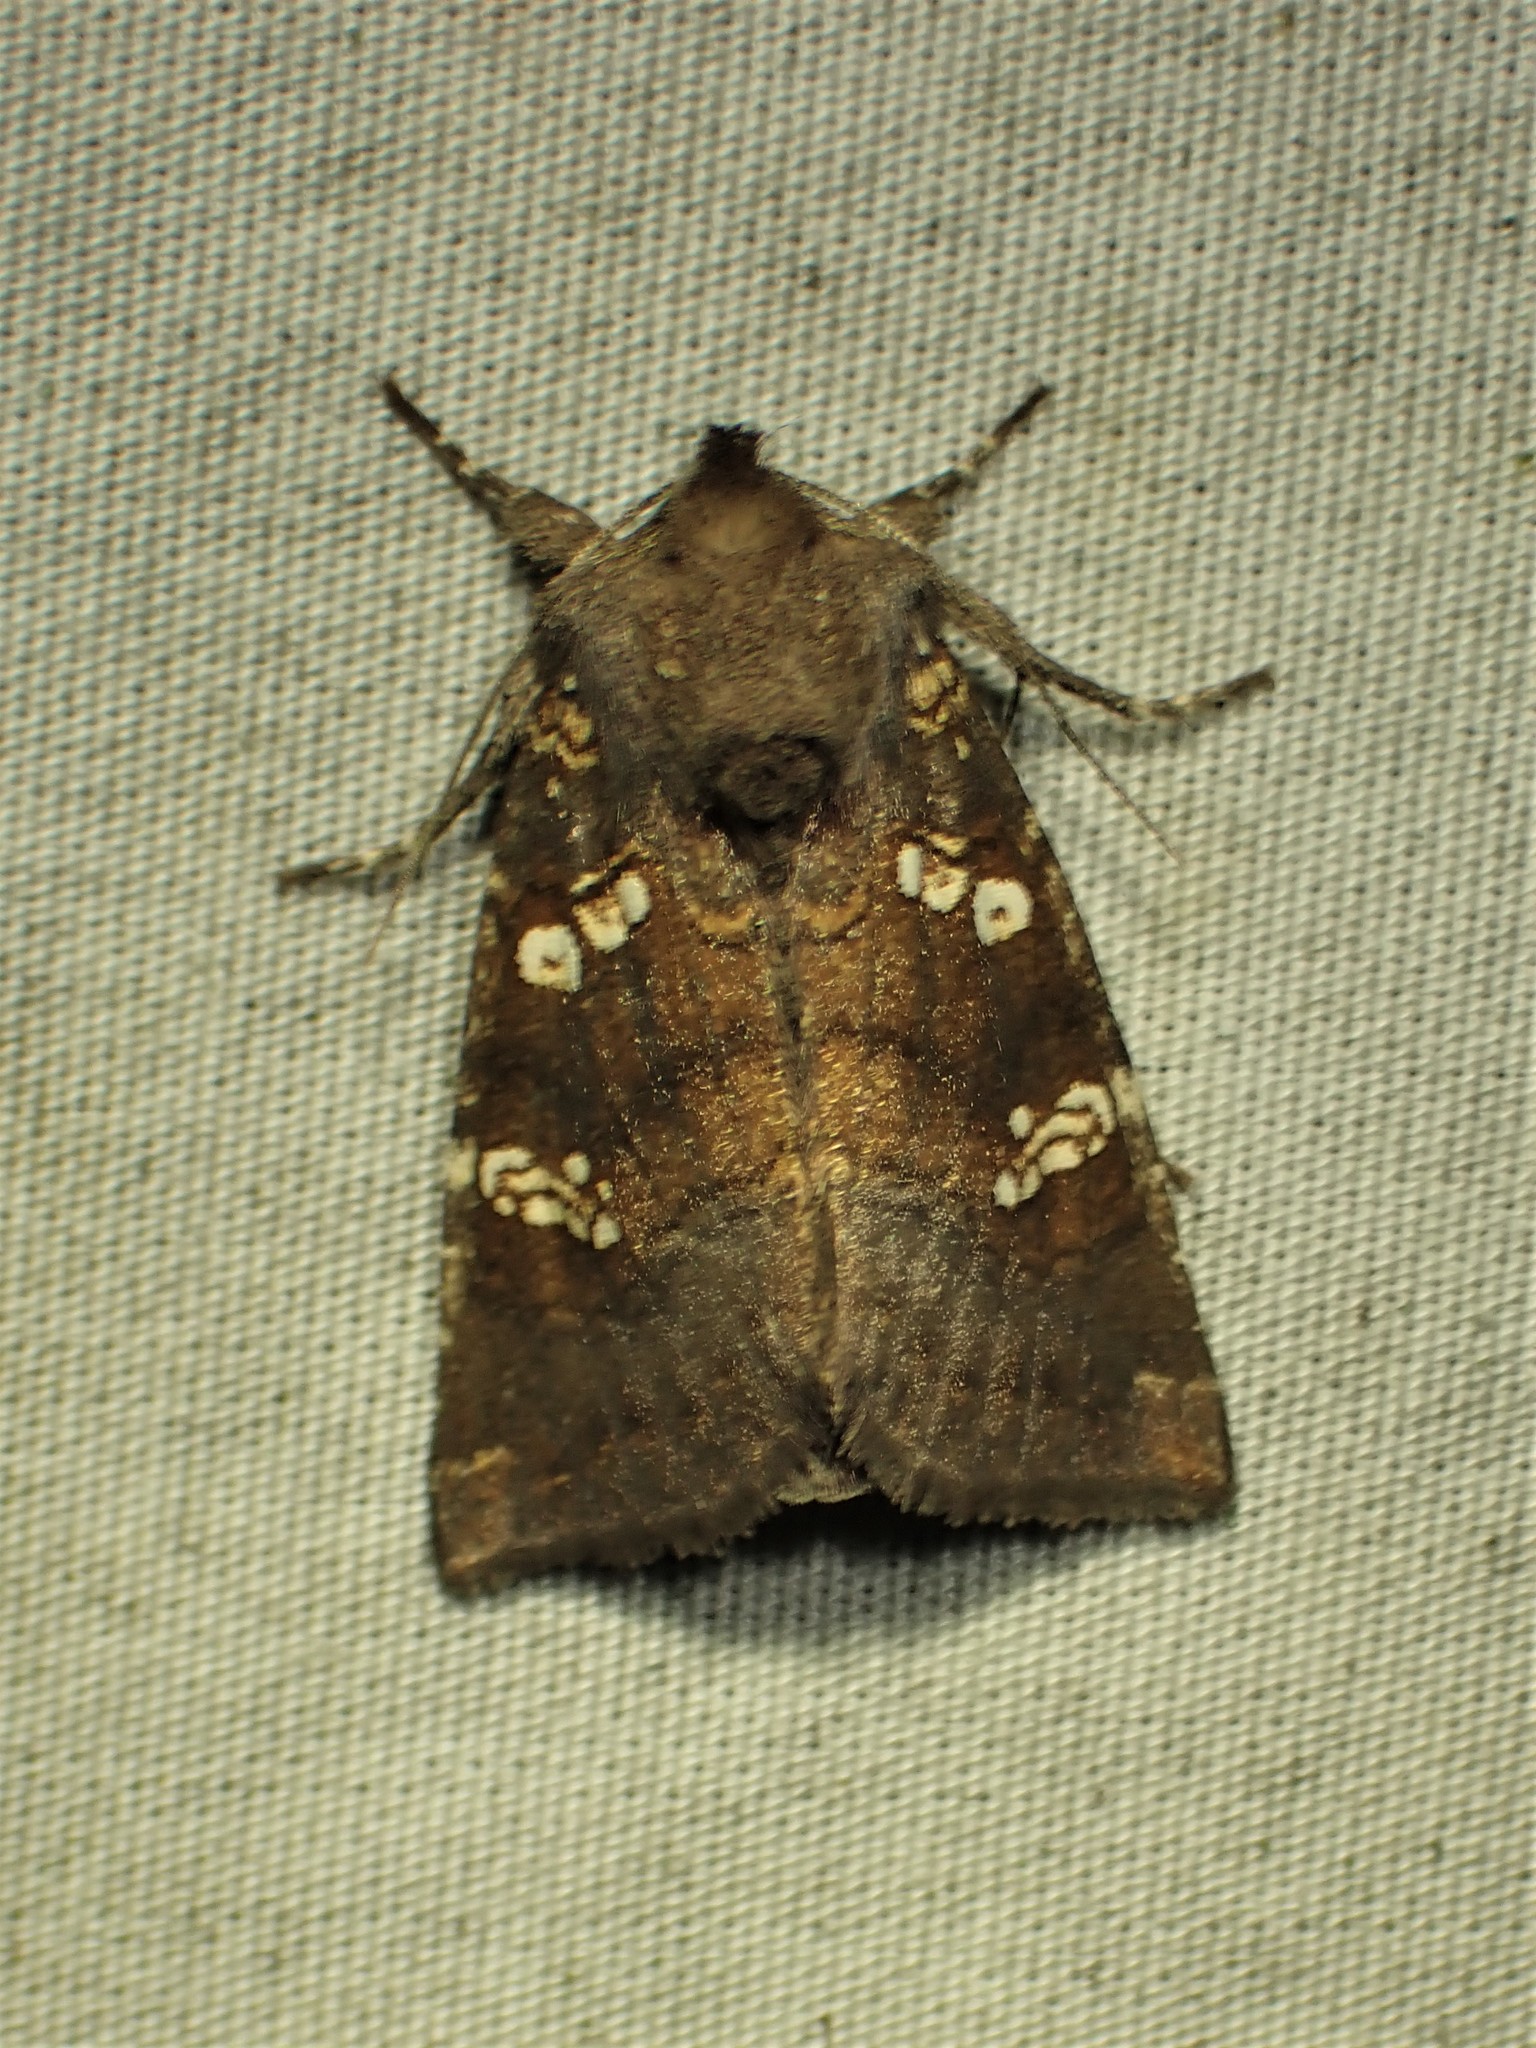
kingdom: Animalia
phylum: Arthropoda
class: Insecta
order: Lepidoptera
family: Noctuidae
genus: Papaipema
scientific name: Papaipema unimoda
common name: Meadow rue borer moth
